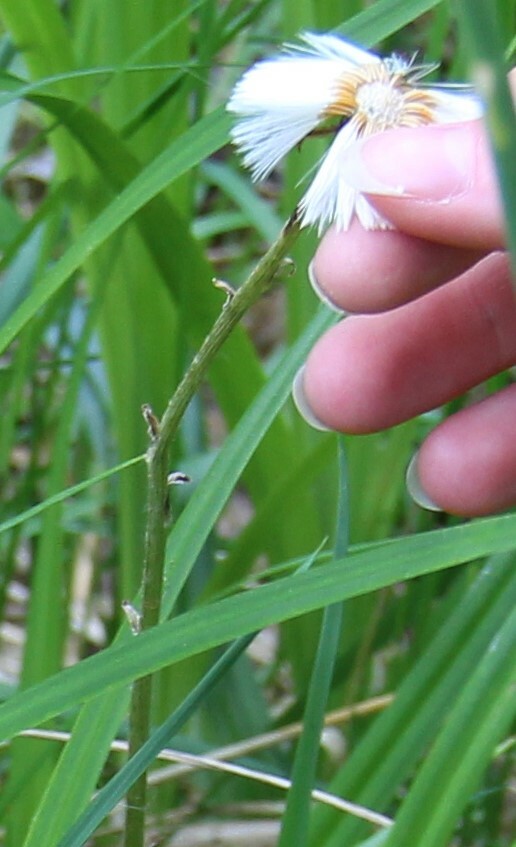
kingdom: Plantae
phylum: Tracheophyta
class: Magnoliopsida
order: Asterales
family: Asteraceae
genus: Tussilago
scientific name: Tussilago farfara
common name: Coltsfoot
